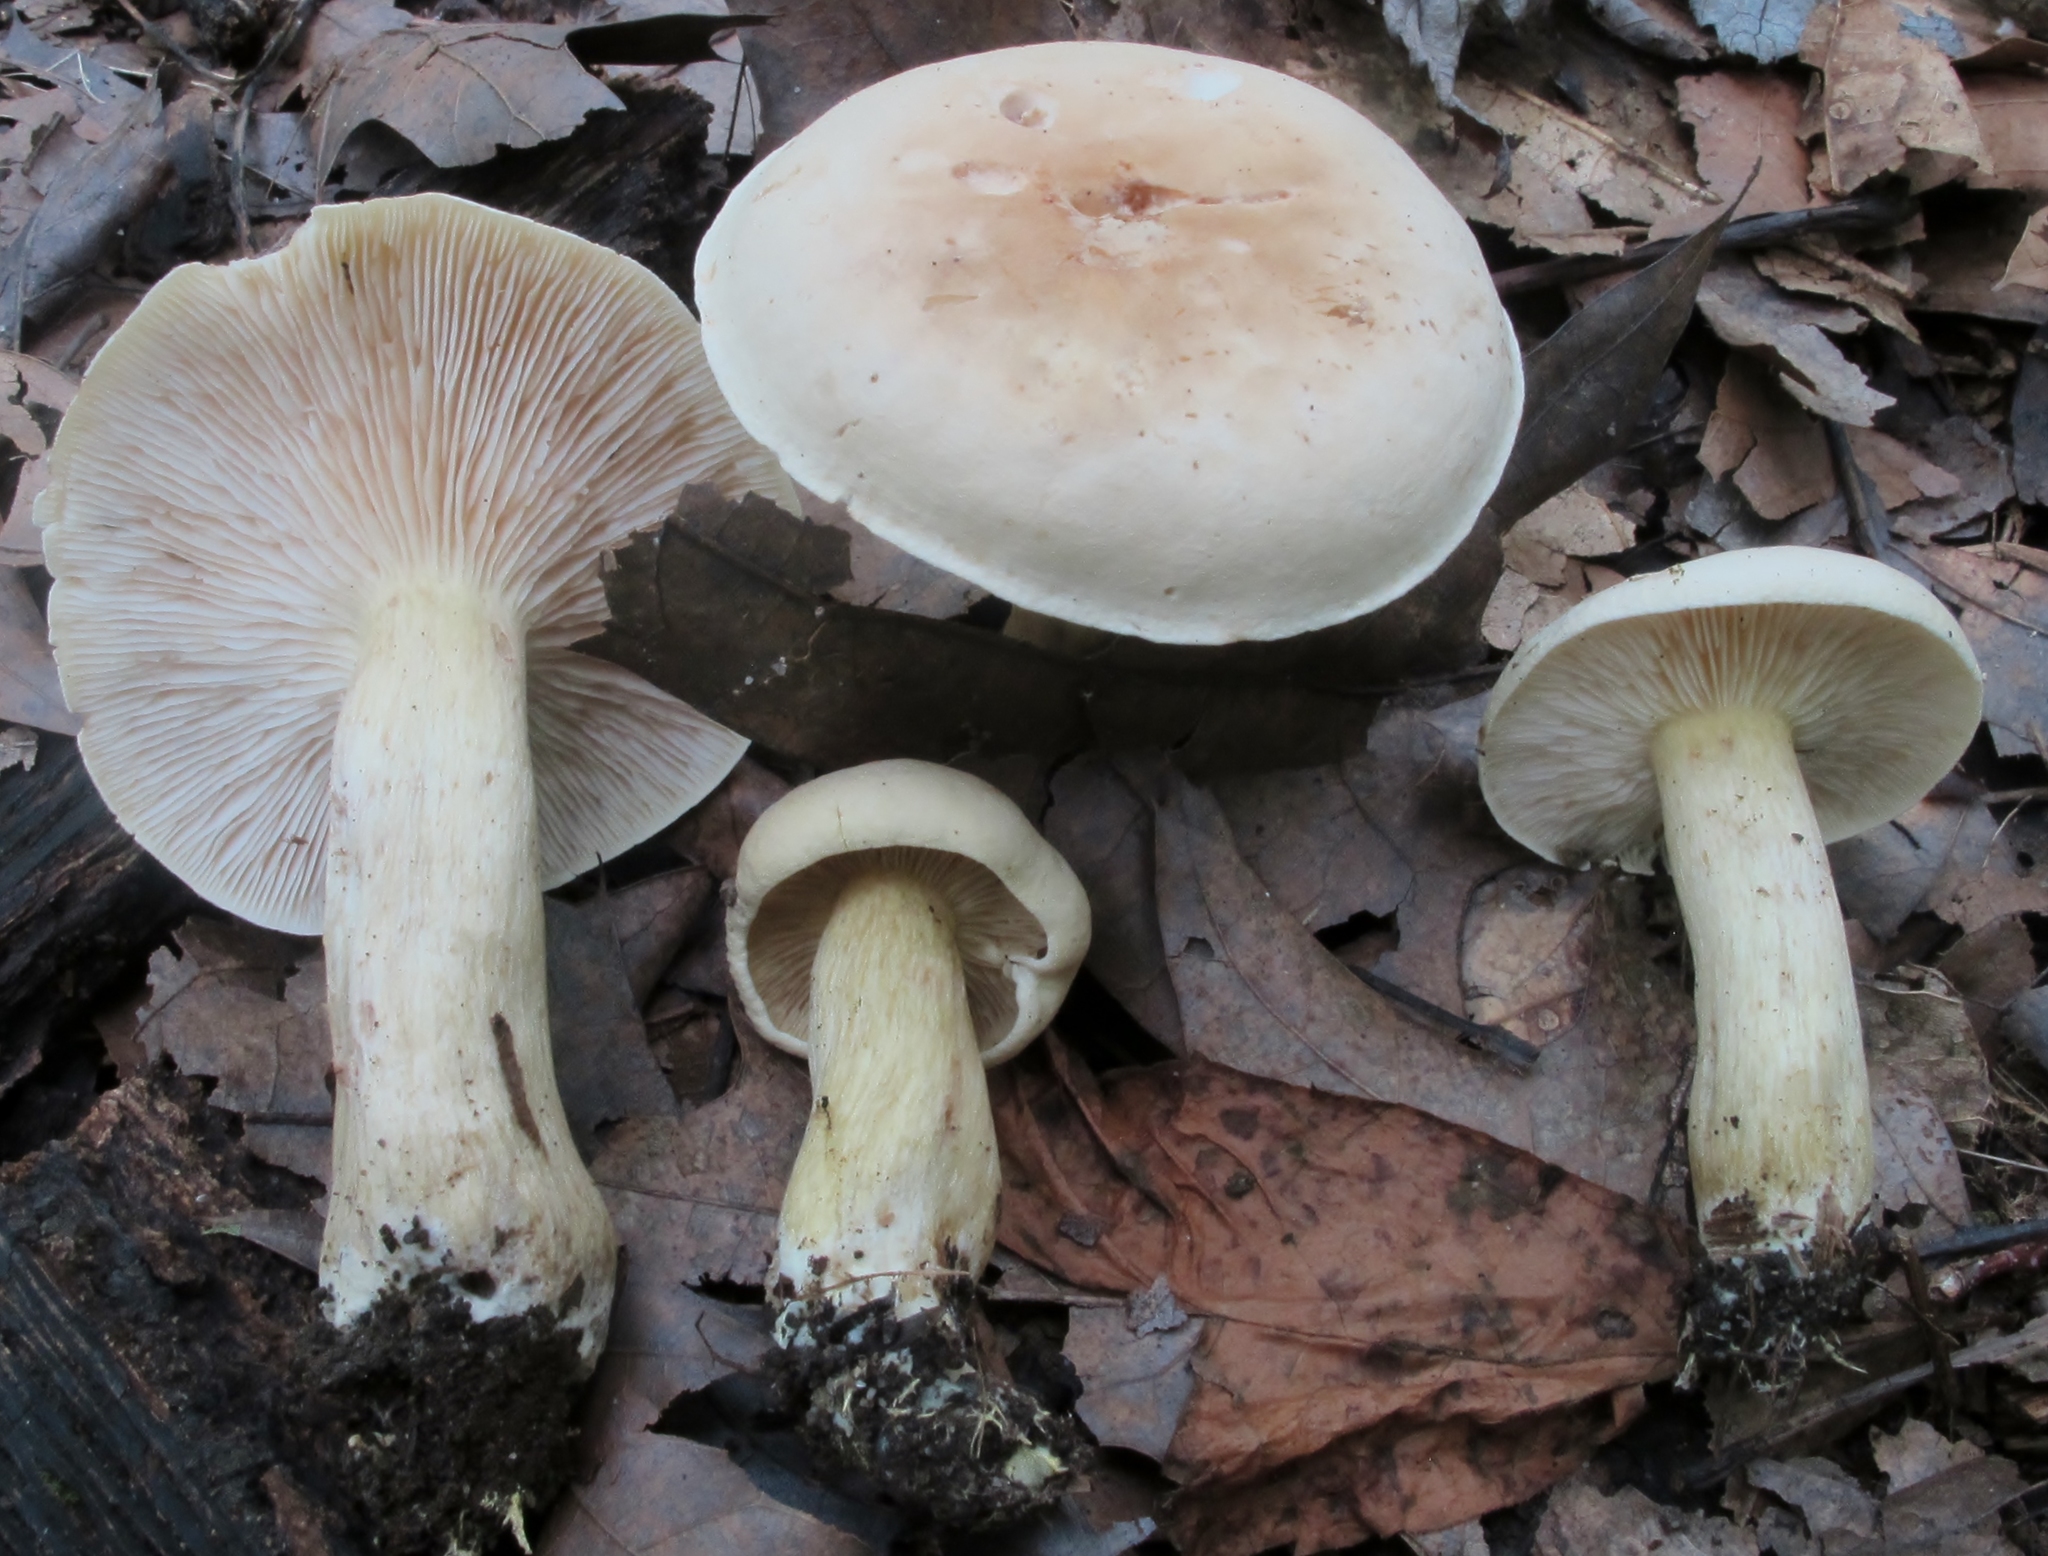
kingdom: Fungi
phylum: Basidiomycota
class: Agaricomycetes
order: Agaricales
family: Tricholomataceae
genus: Tricholoma
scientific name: Tricholoma odorum
